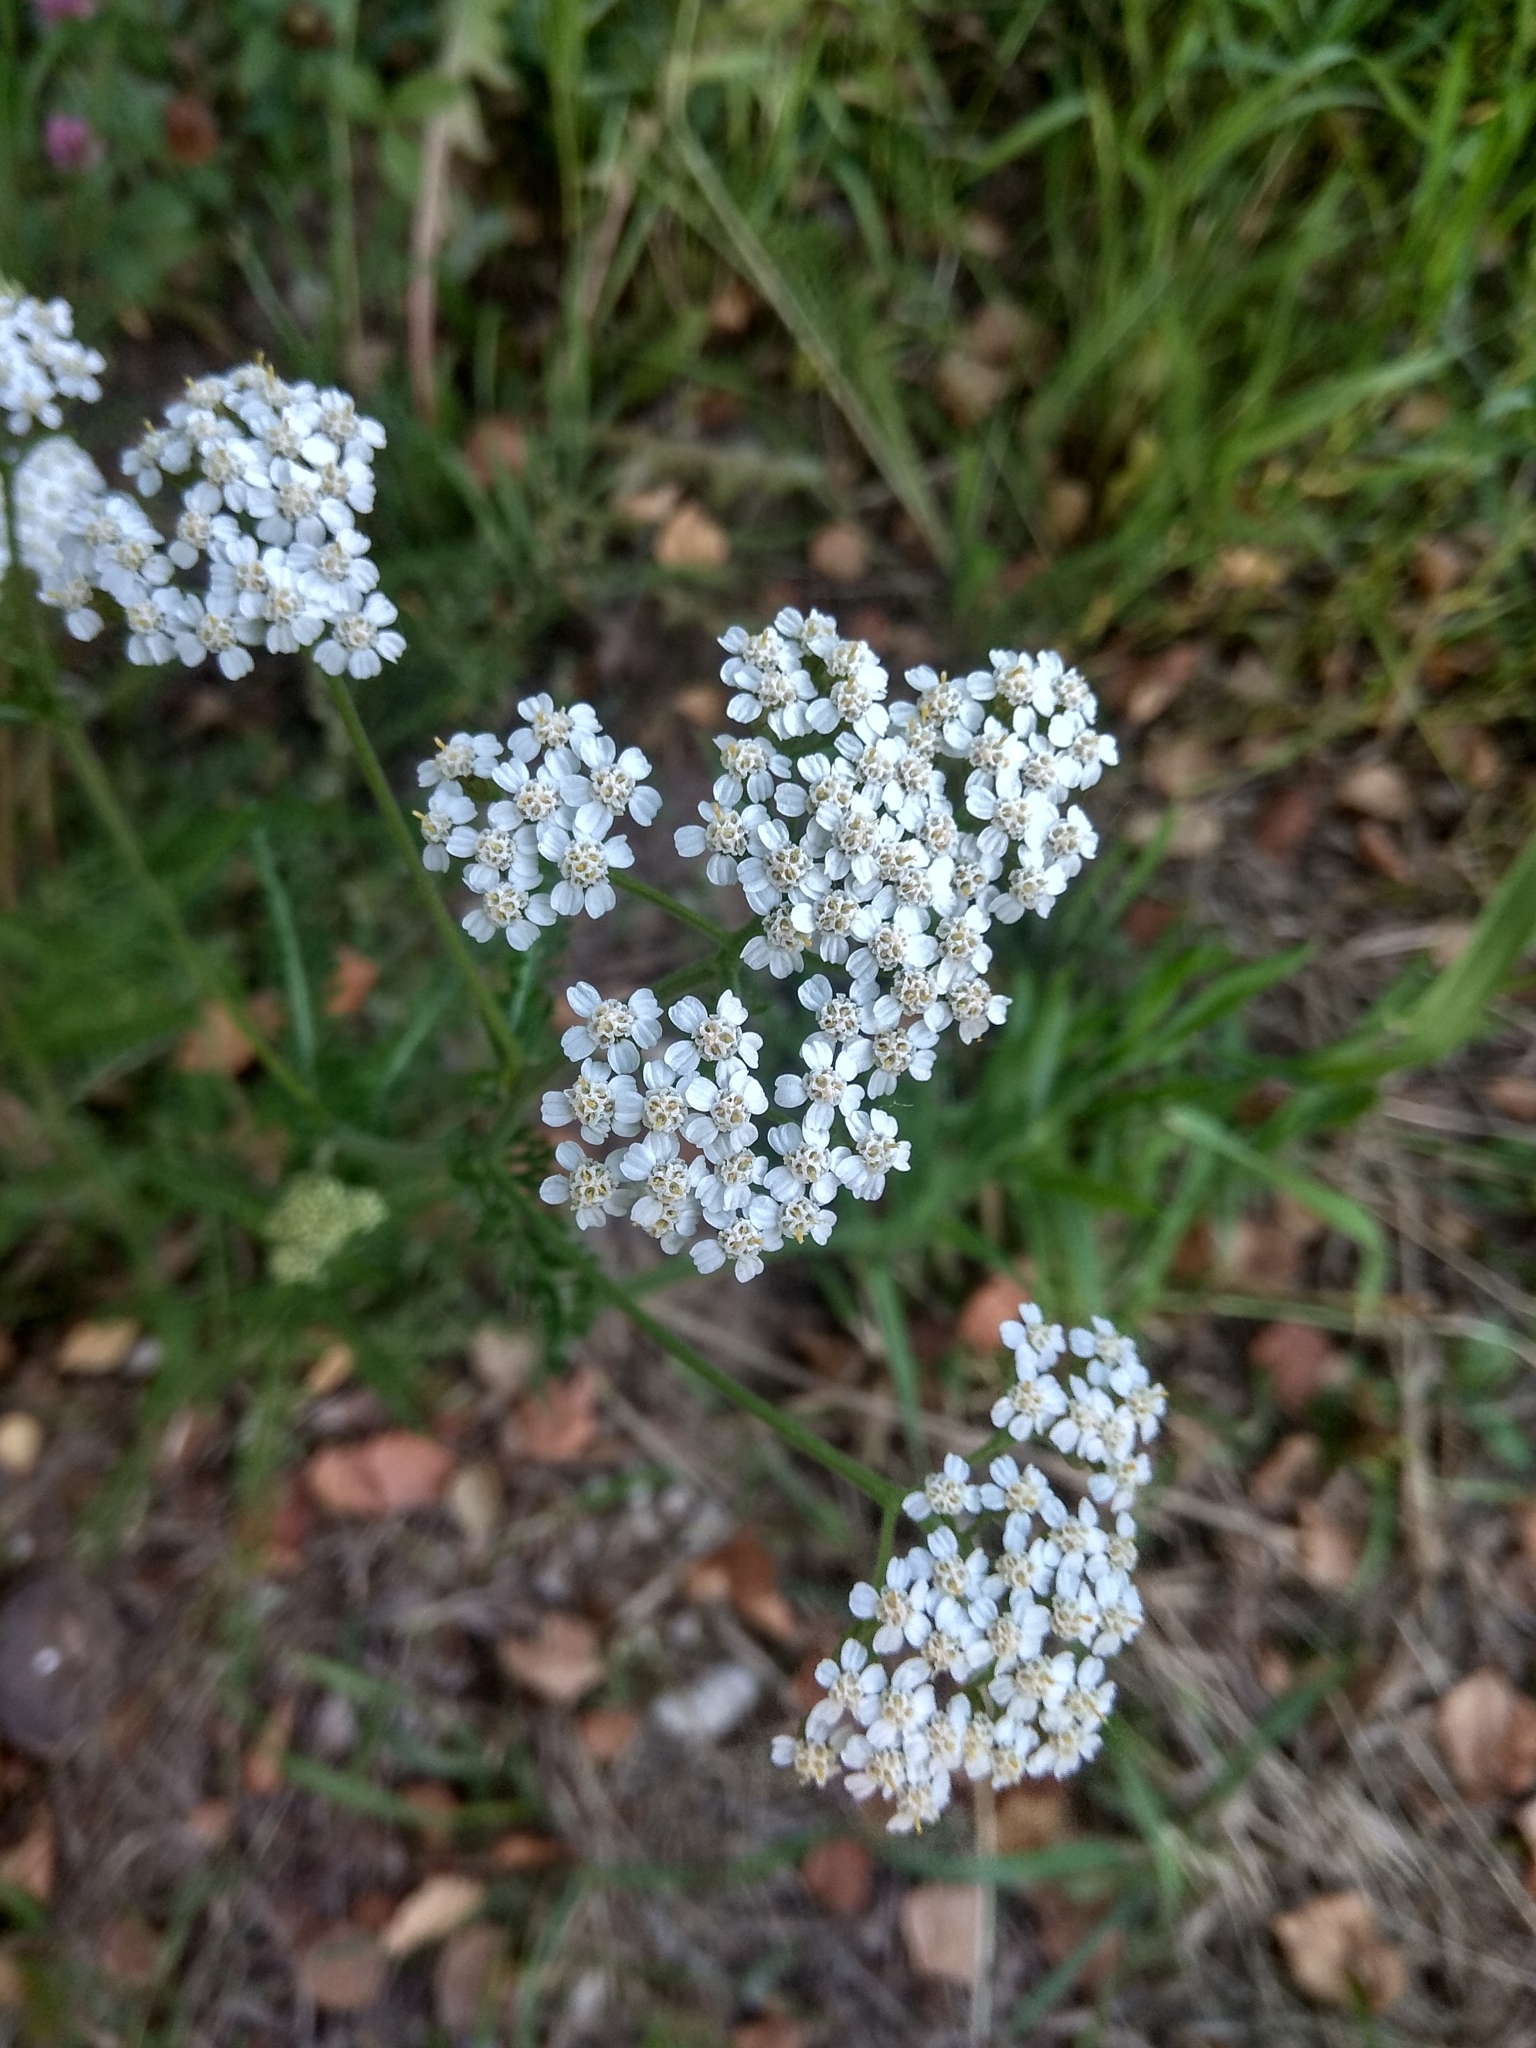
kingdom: Plantae
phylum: Tracheophyta
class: Magnoliopsida
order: Asterales
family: Asteraceae
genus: Achillea
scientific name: Achillea millefolium
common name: Yarrow
